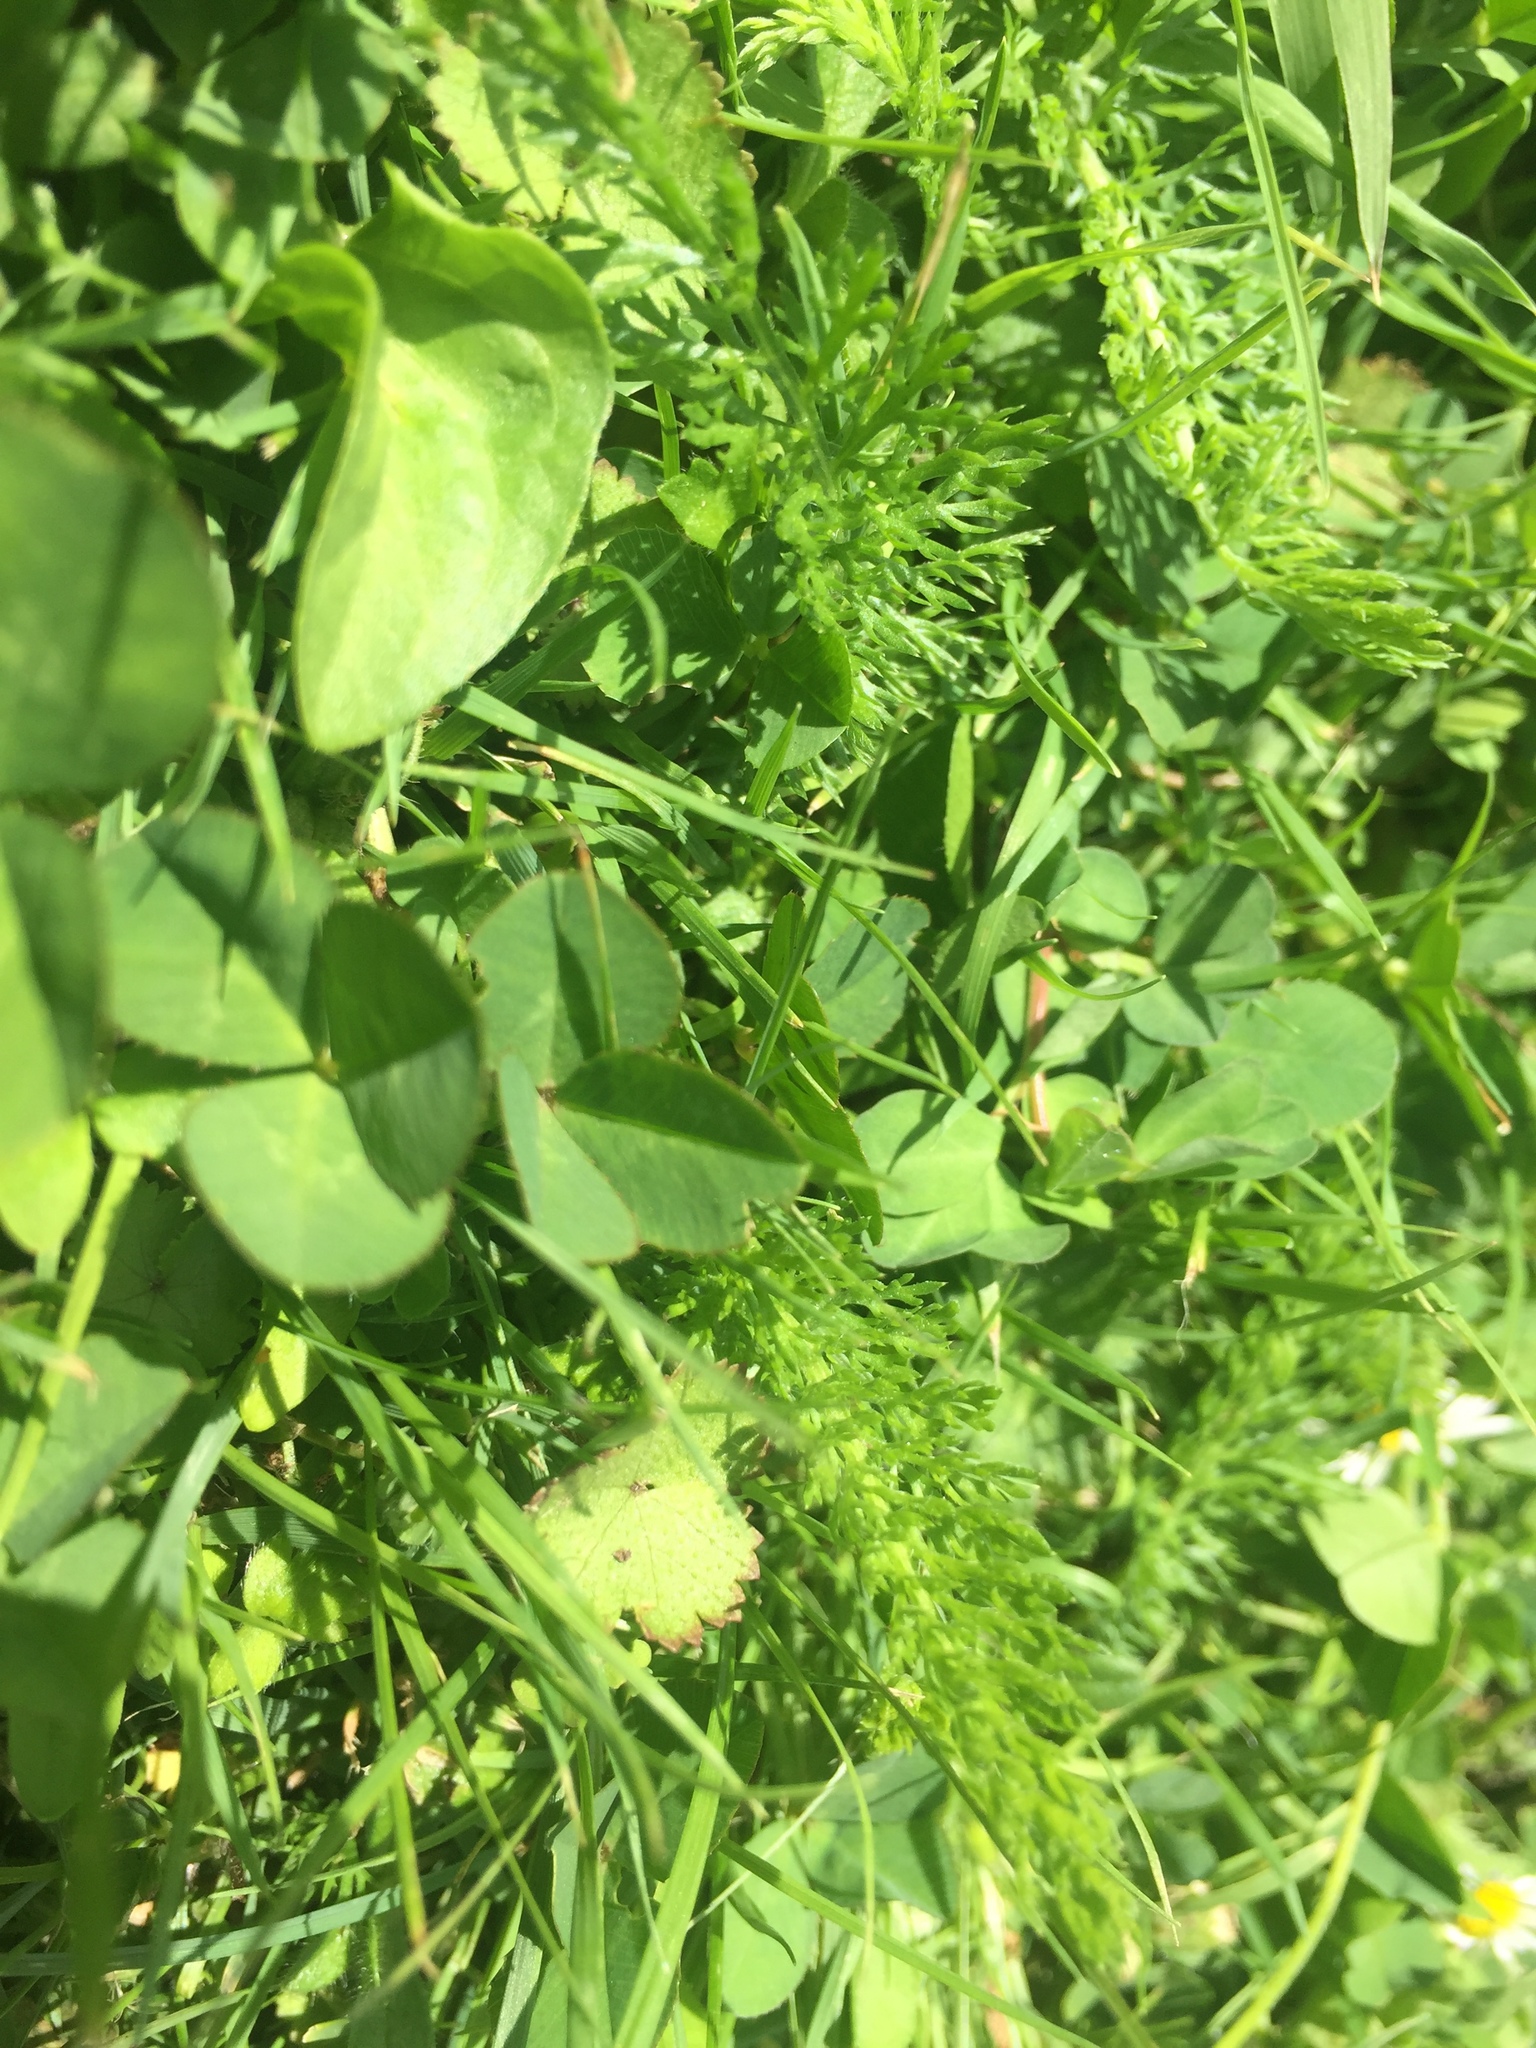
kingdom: Plantae
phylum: Tracheophyta
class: Magnoliopsida
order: Asterales
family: Asteraceae
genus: Achillea
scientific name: Achillea millefolium
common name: Yarrow
